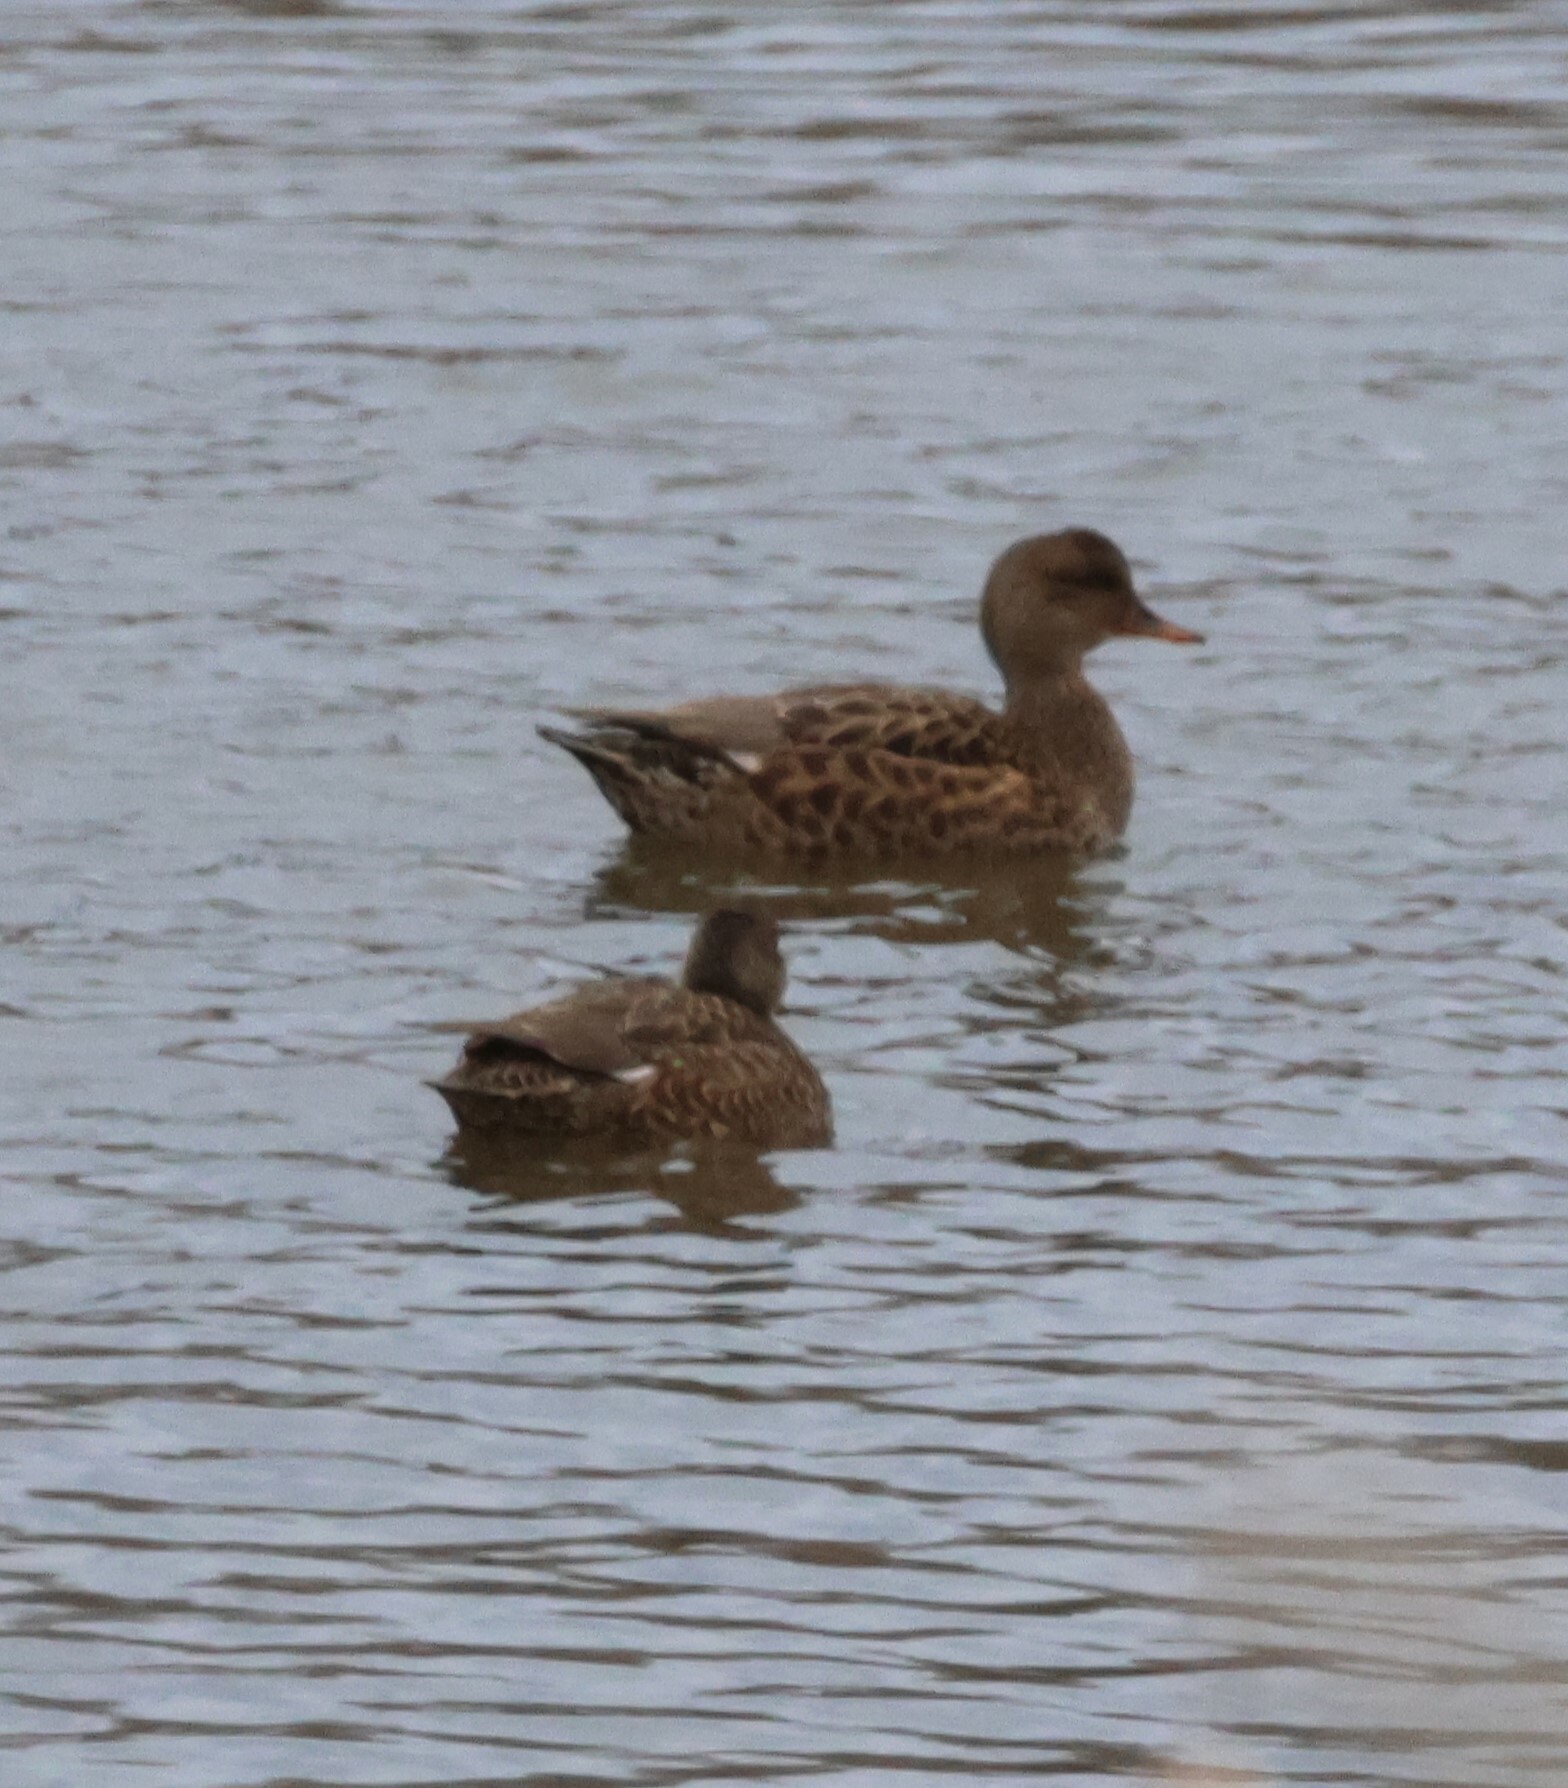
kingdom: Animalia
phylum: Chordata
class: Aves
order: Anseriformes
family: Anatidae
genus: Mareca
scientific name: Mareca strepera
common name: Gadwall
